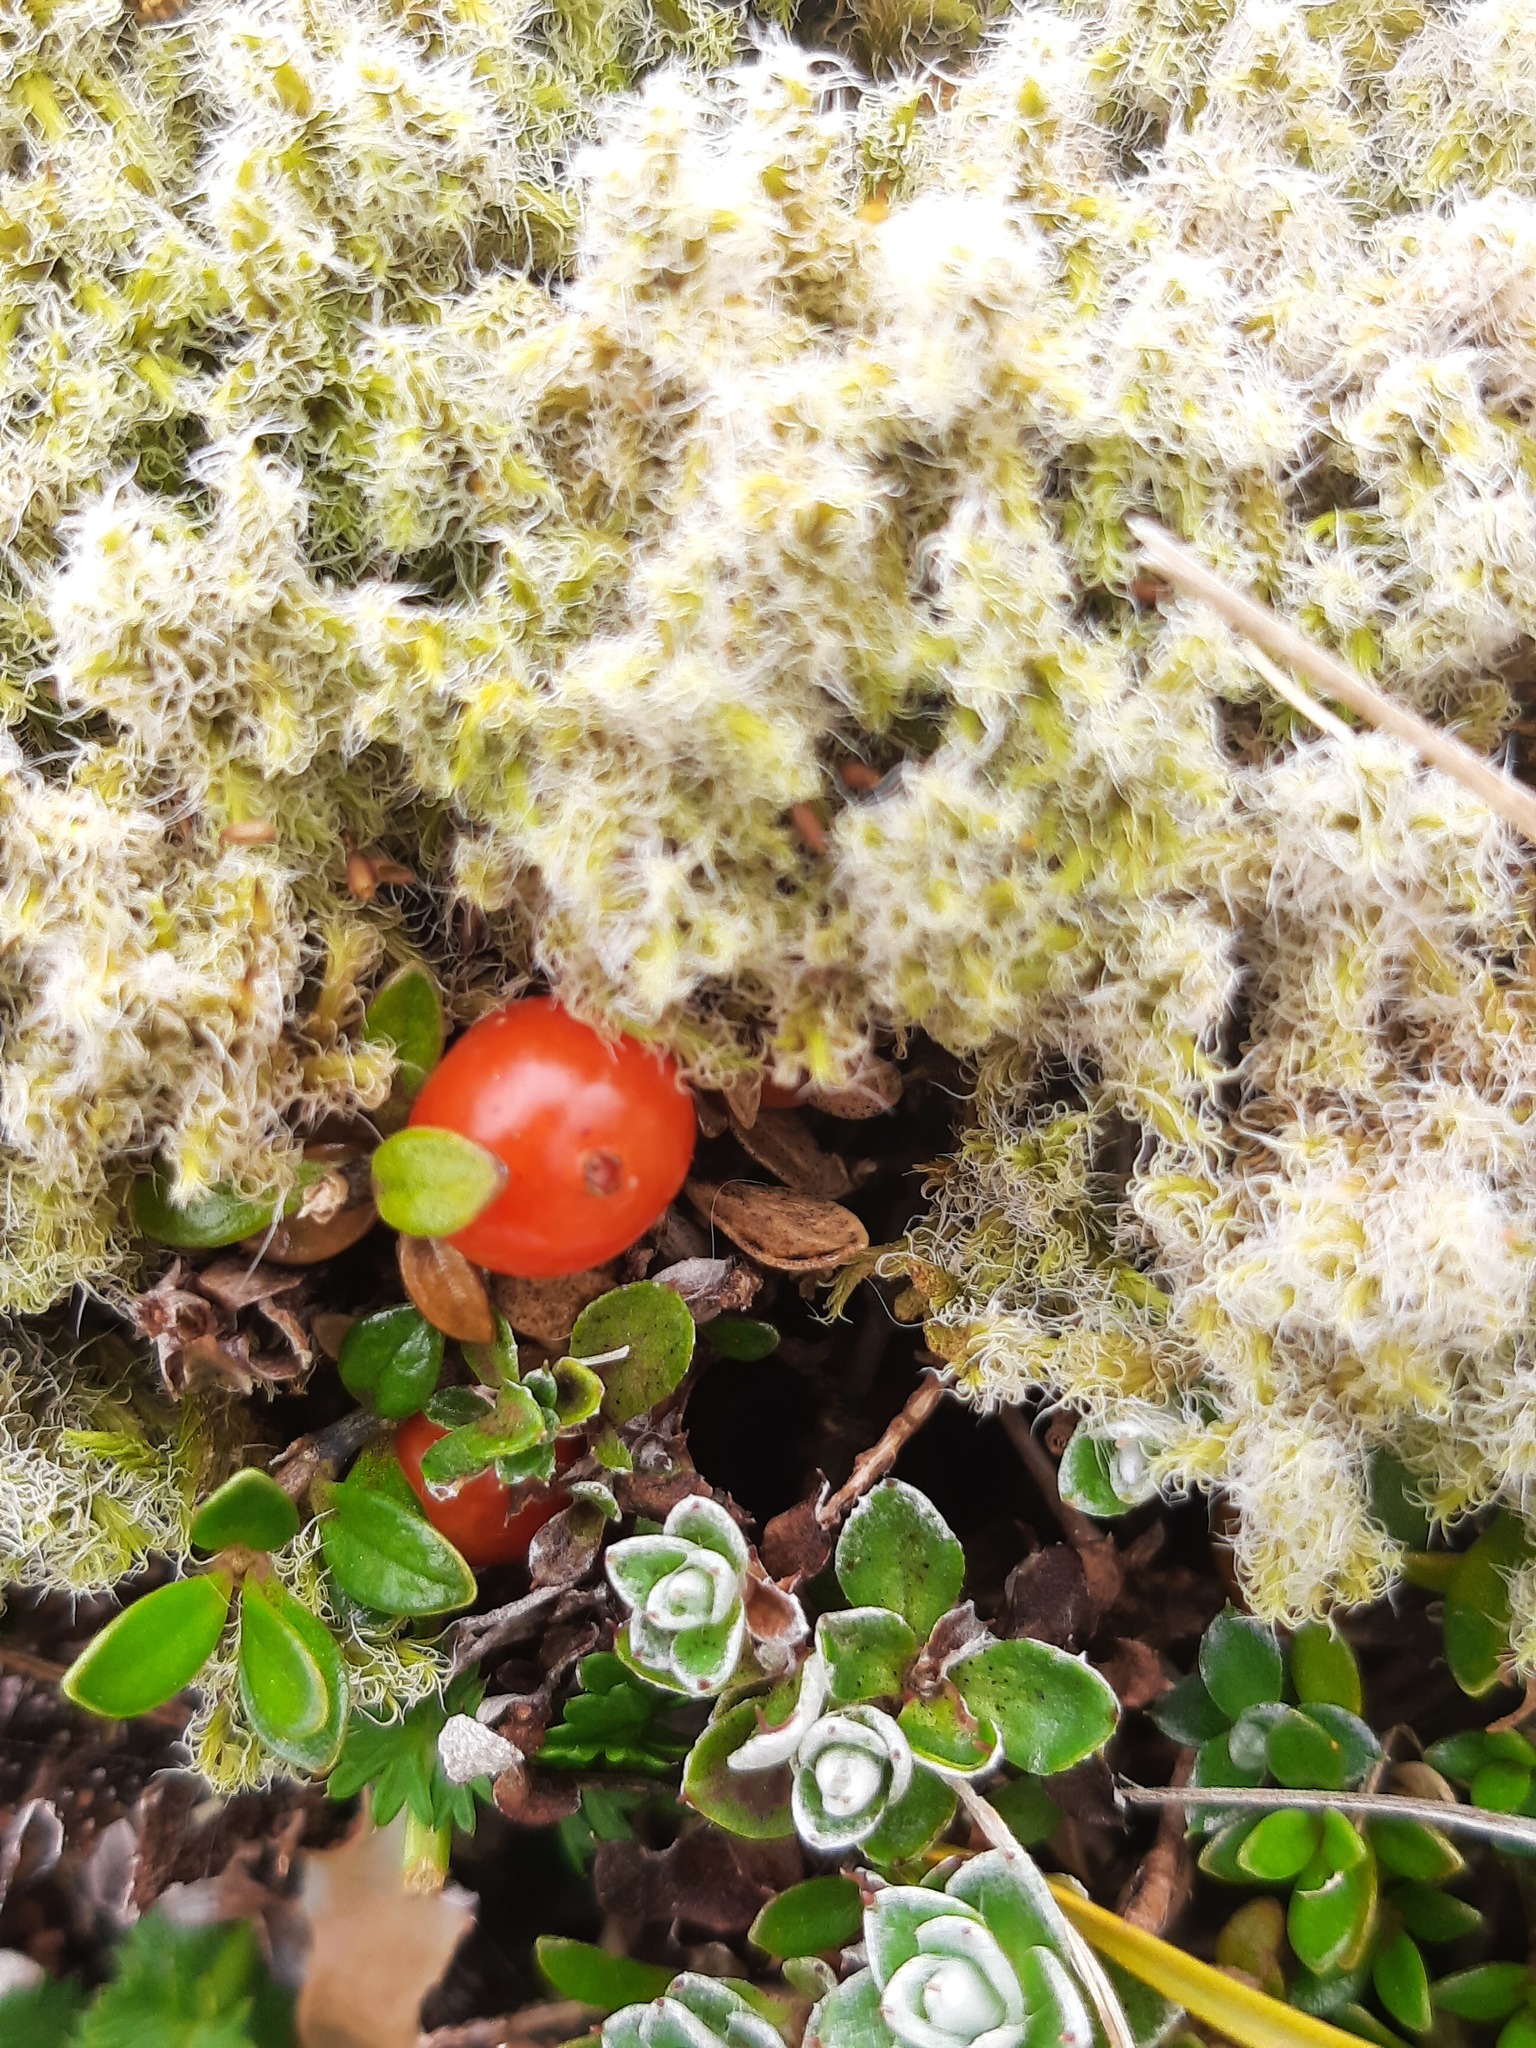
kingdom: Plantae
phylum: Tracheophyta
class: Magnoliopsida
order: Gentianales
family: Rubiaceae
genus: Nertera
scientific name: Nertera granadensis
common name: Beadplant
